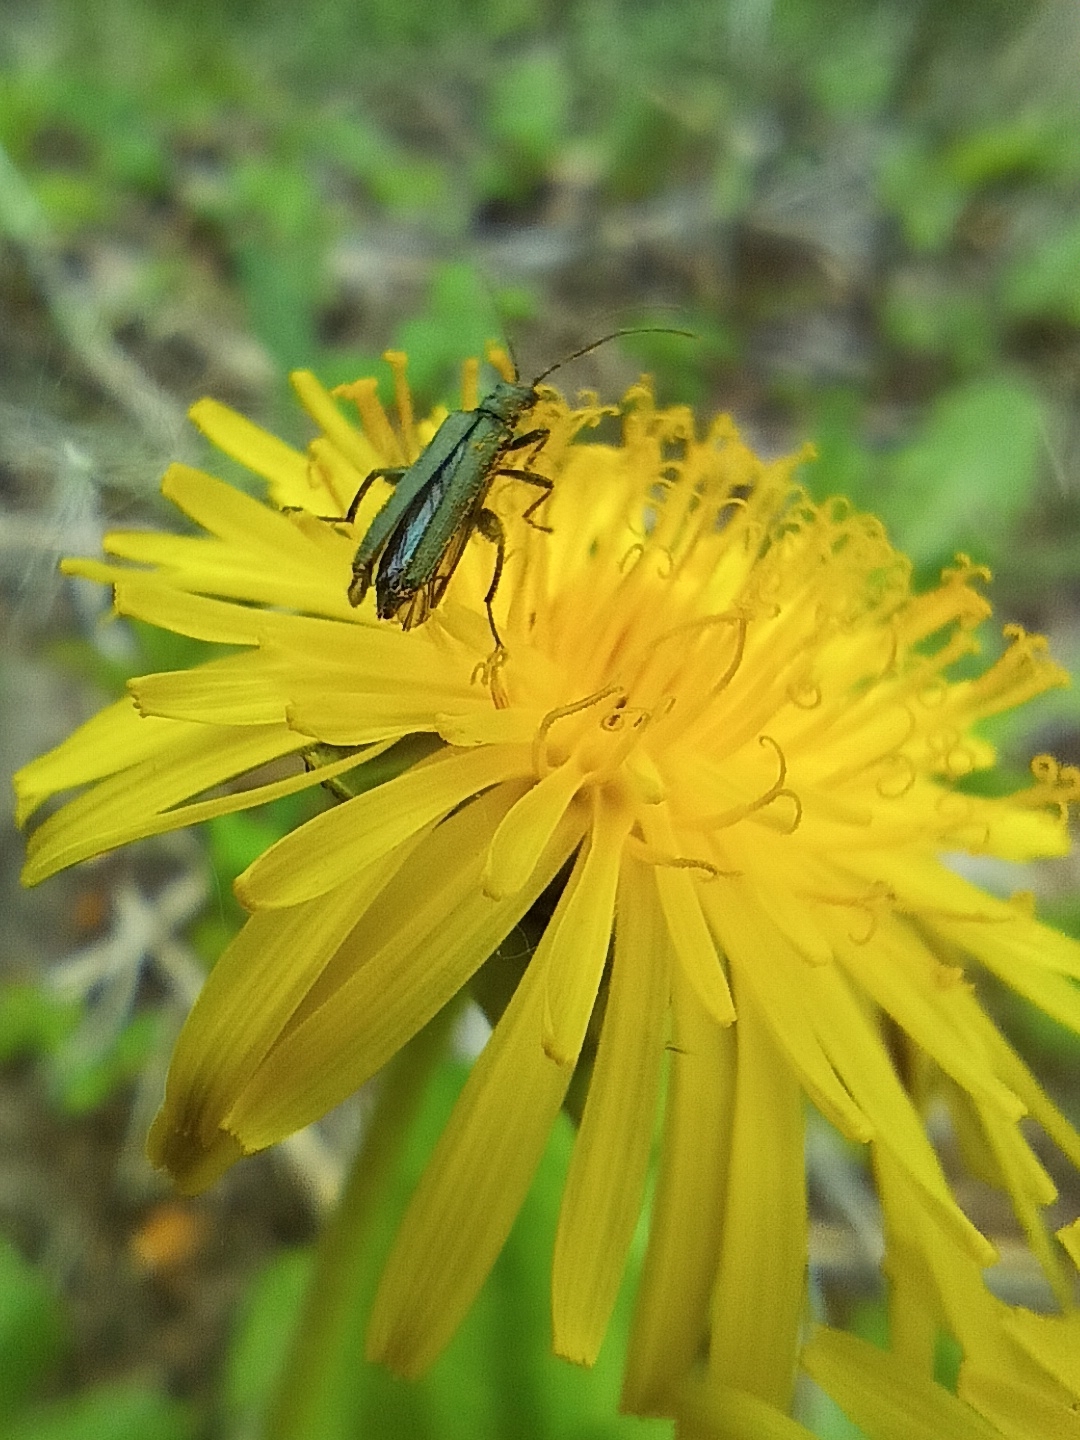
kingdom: Animalia
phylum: Arthropoda
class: Insecta
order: Coleoptera
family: Oedemeridae
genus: Oedemera
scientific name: Oedemera virescens
